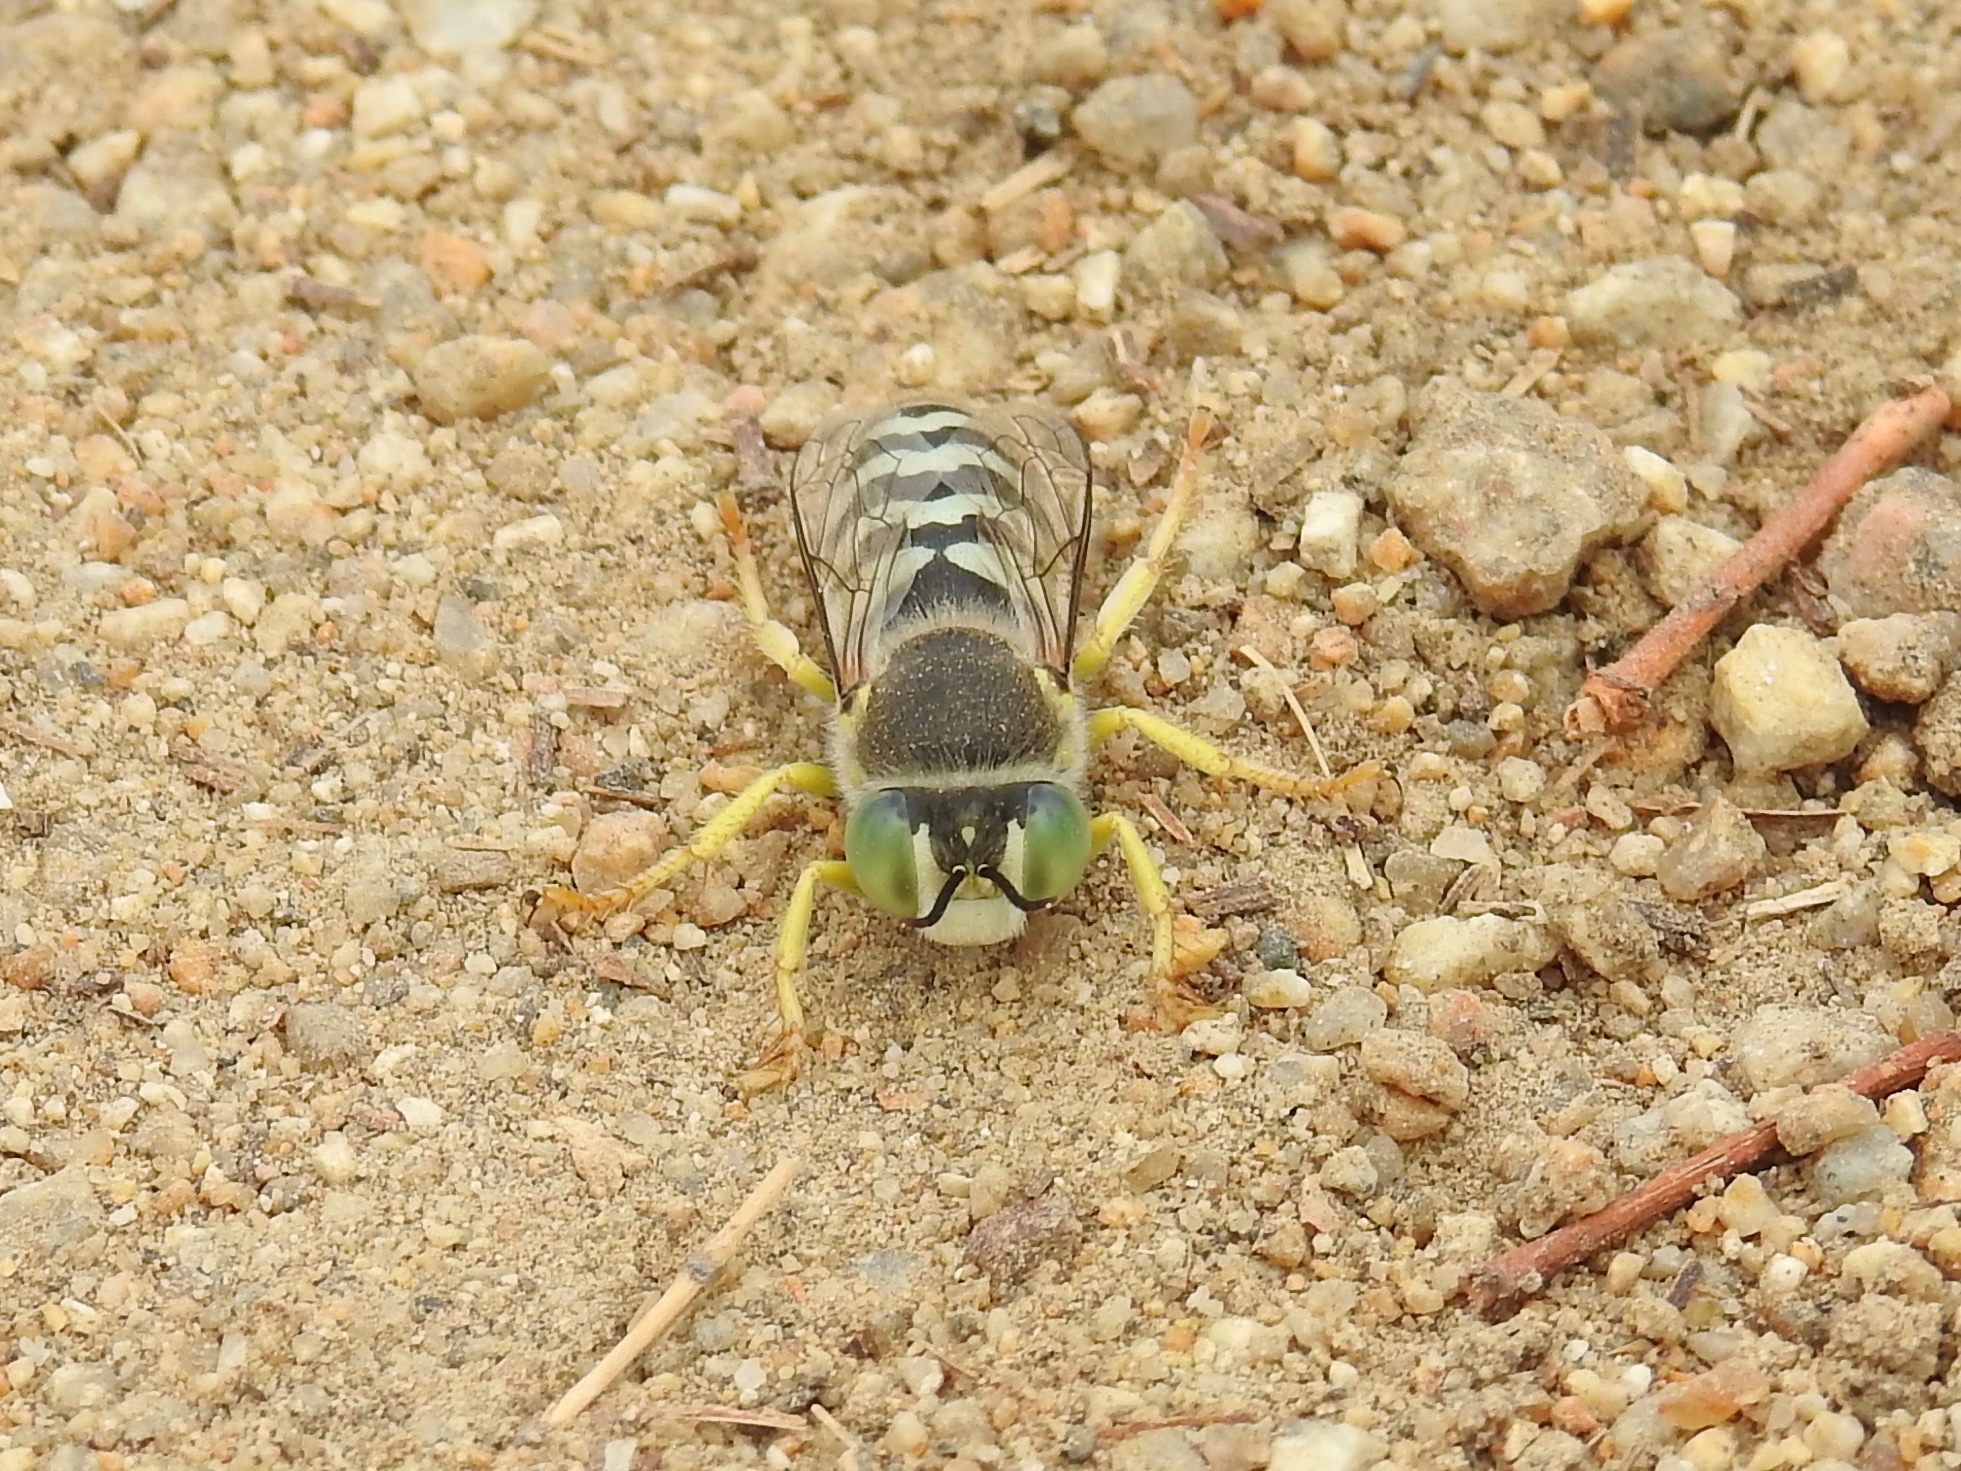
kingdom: Animalia
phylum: Arthropoda
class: Insecta
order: Hymenoptera
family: Crabronidae
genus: Bembix
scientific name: Bembix americana
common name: American sand wasp
